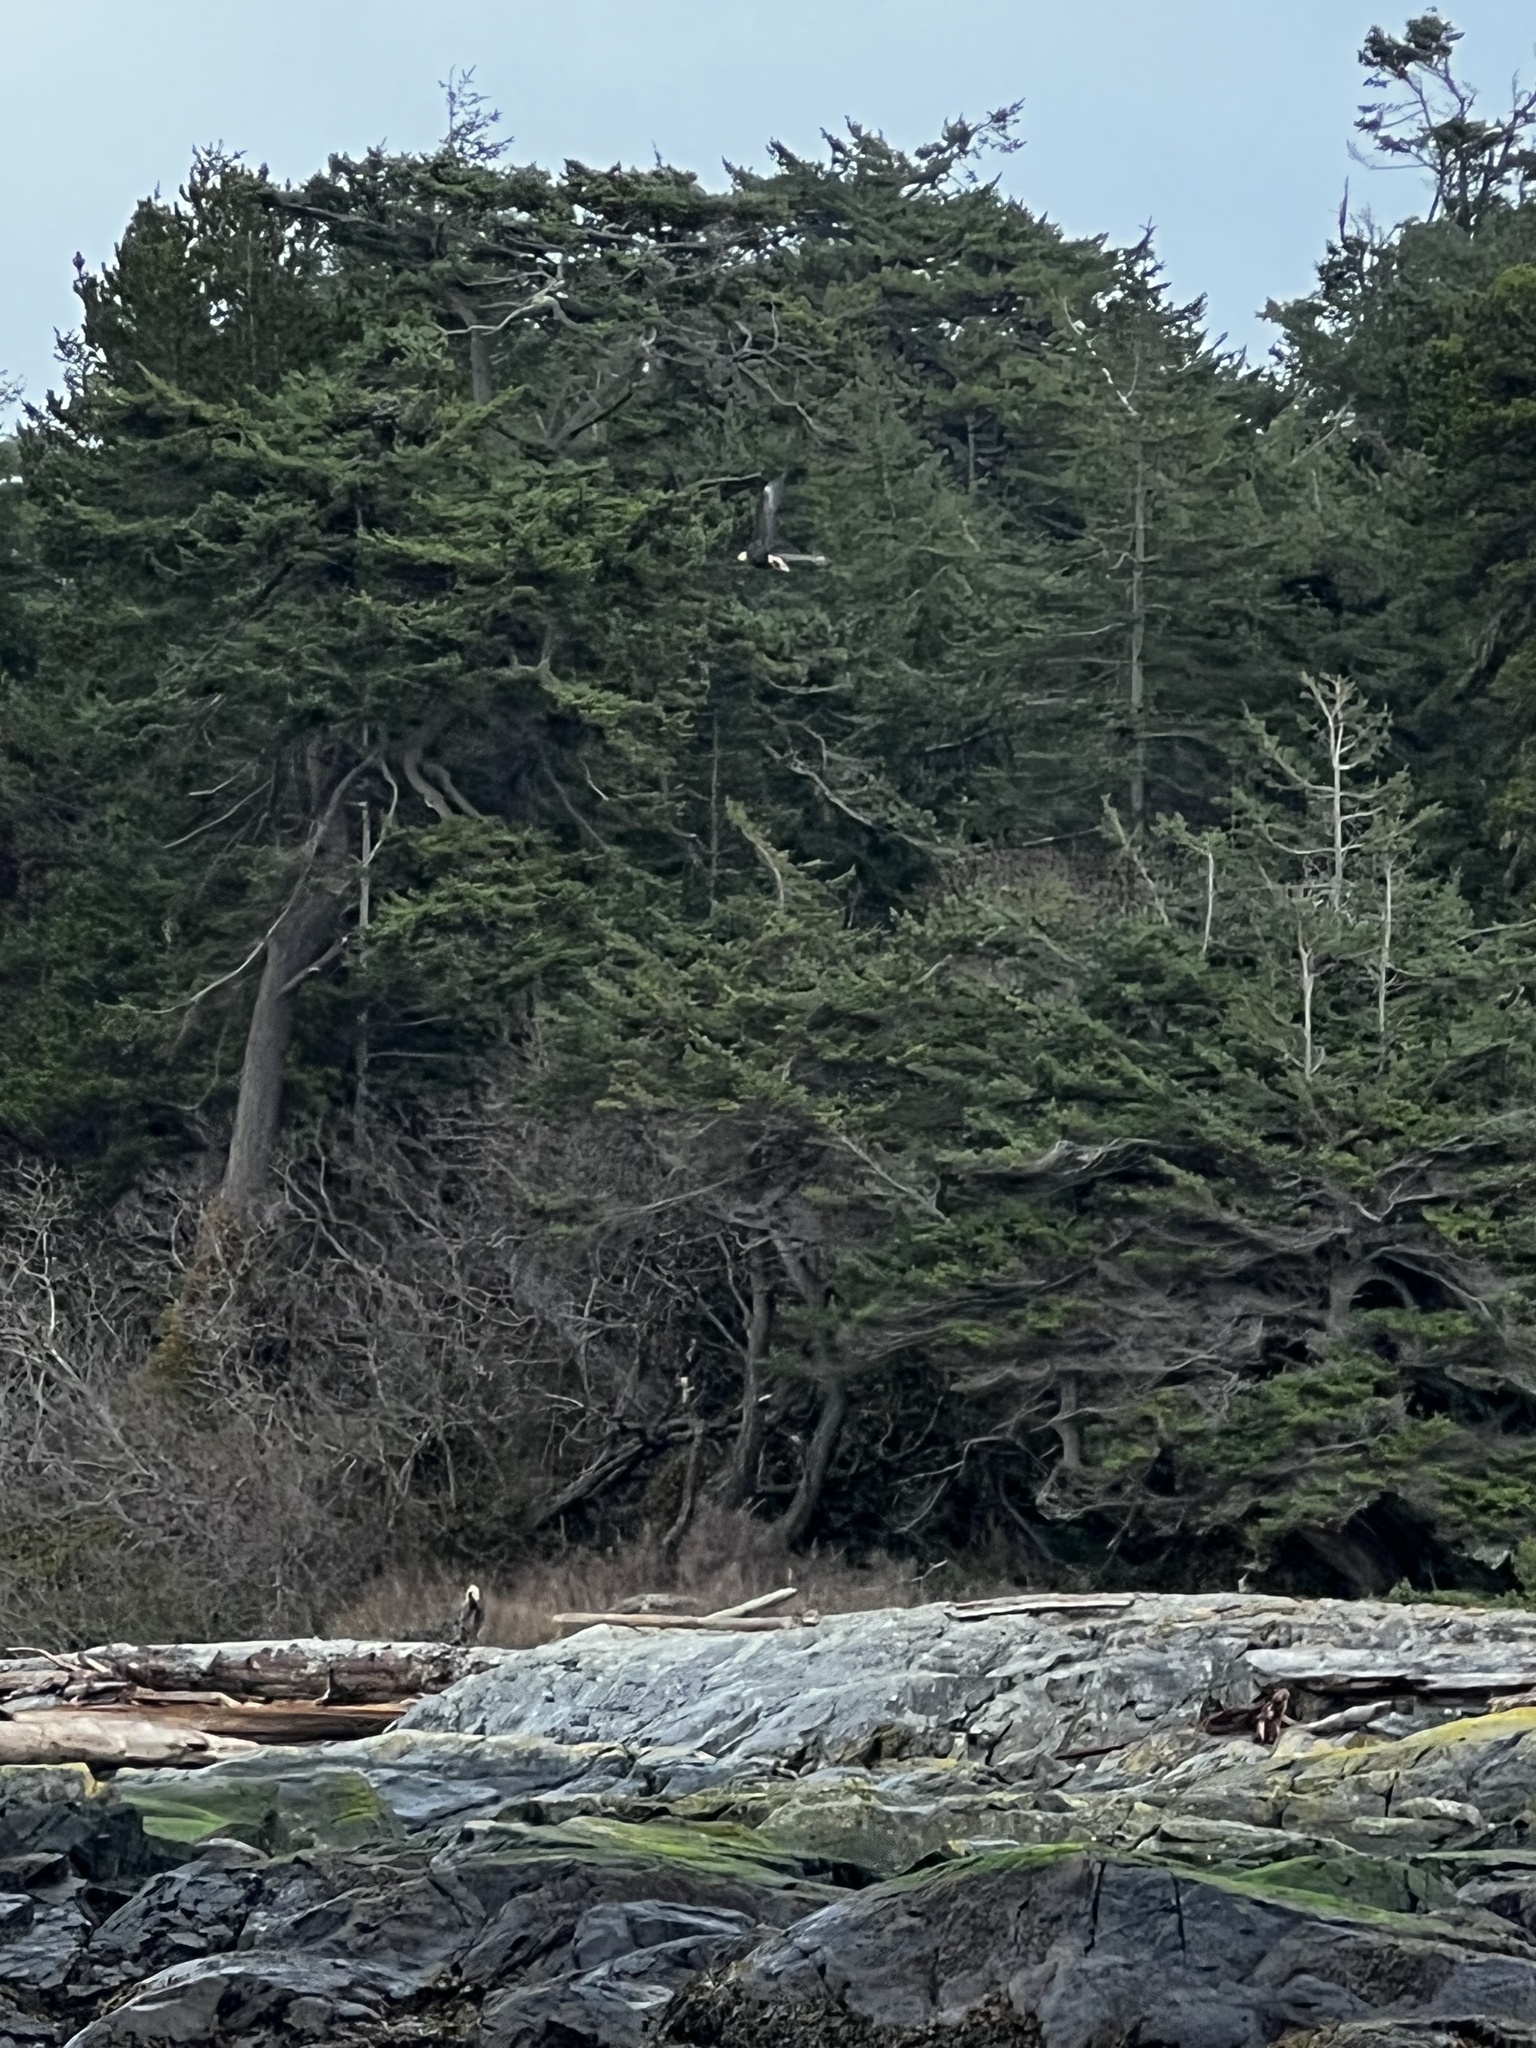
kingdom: Animalia
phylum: Chordata
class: Aves
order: Accipitriformes
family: Accipitridae
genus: Haliaeetus
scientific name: Haliaeetus leucocephalus
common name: Bald eagle
